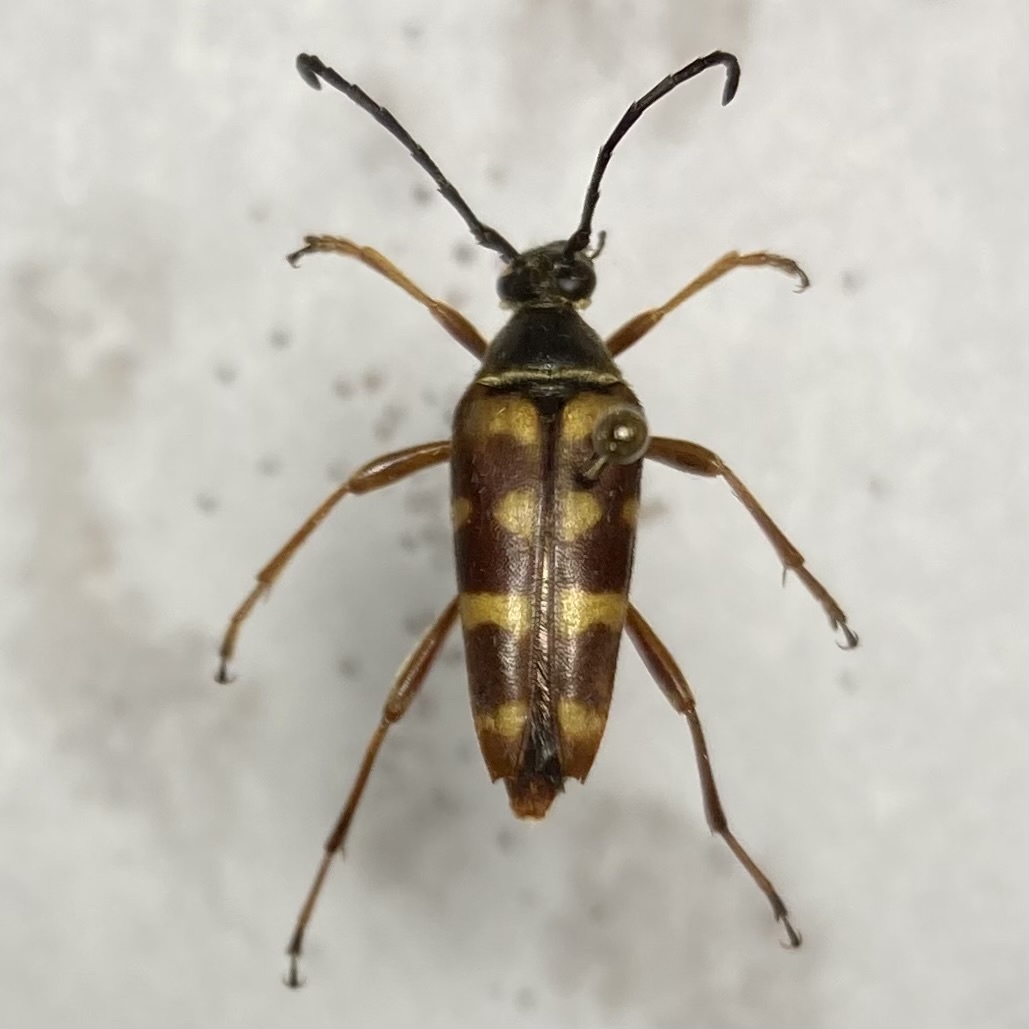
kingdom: Animalia
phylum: Arthropoda
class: Insecta
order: Coleoptera
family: Cerambycidae
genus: Typocerus
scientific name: Typocerus velutinus
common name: Banded longhorn beetle
